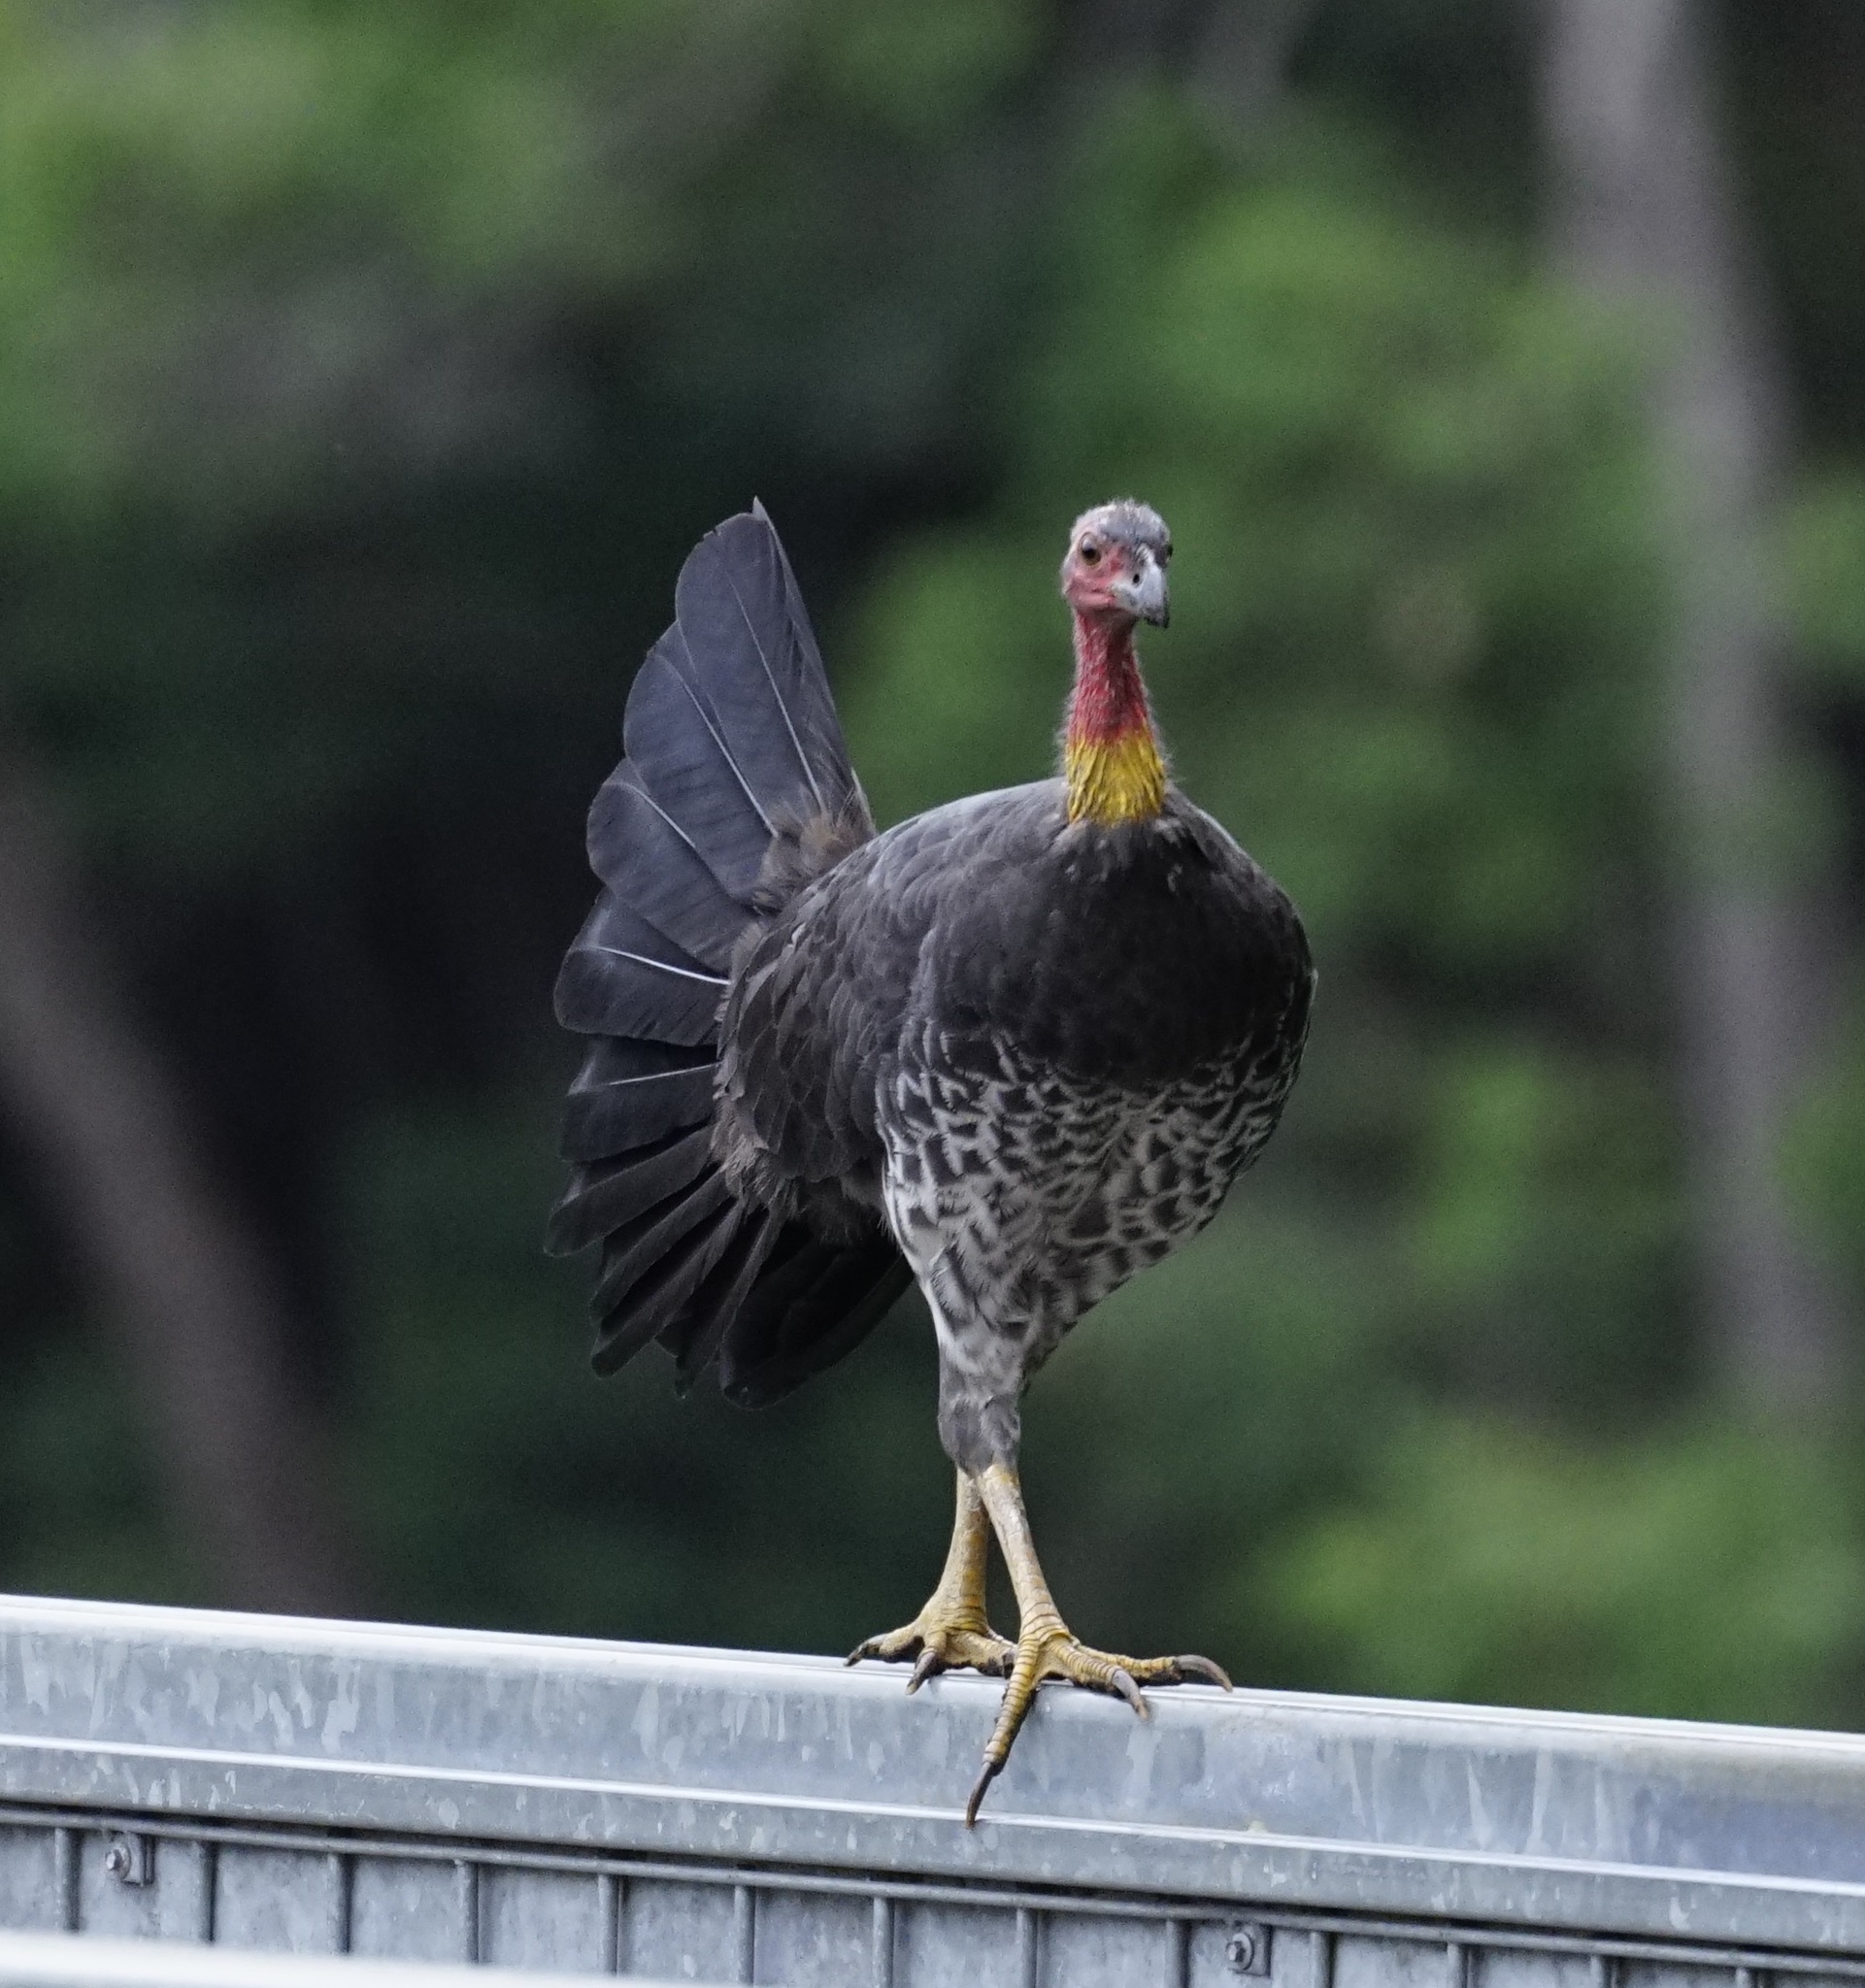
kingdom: Animalia
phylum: Chordata
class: Aves
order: Galliformes
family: Megapodiidae
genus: Alectura
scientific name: Alectura lathami
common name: Australian brushturkey
